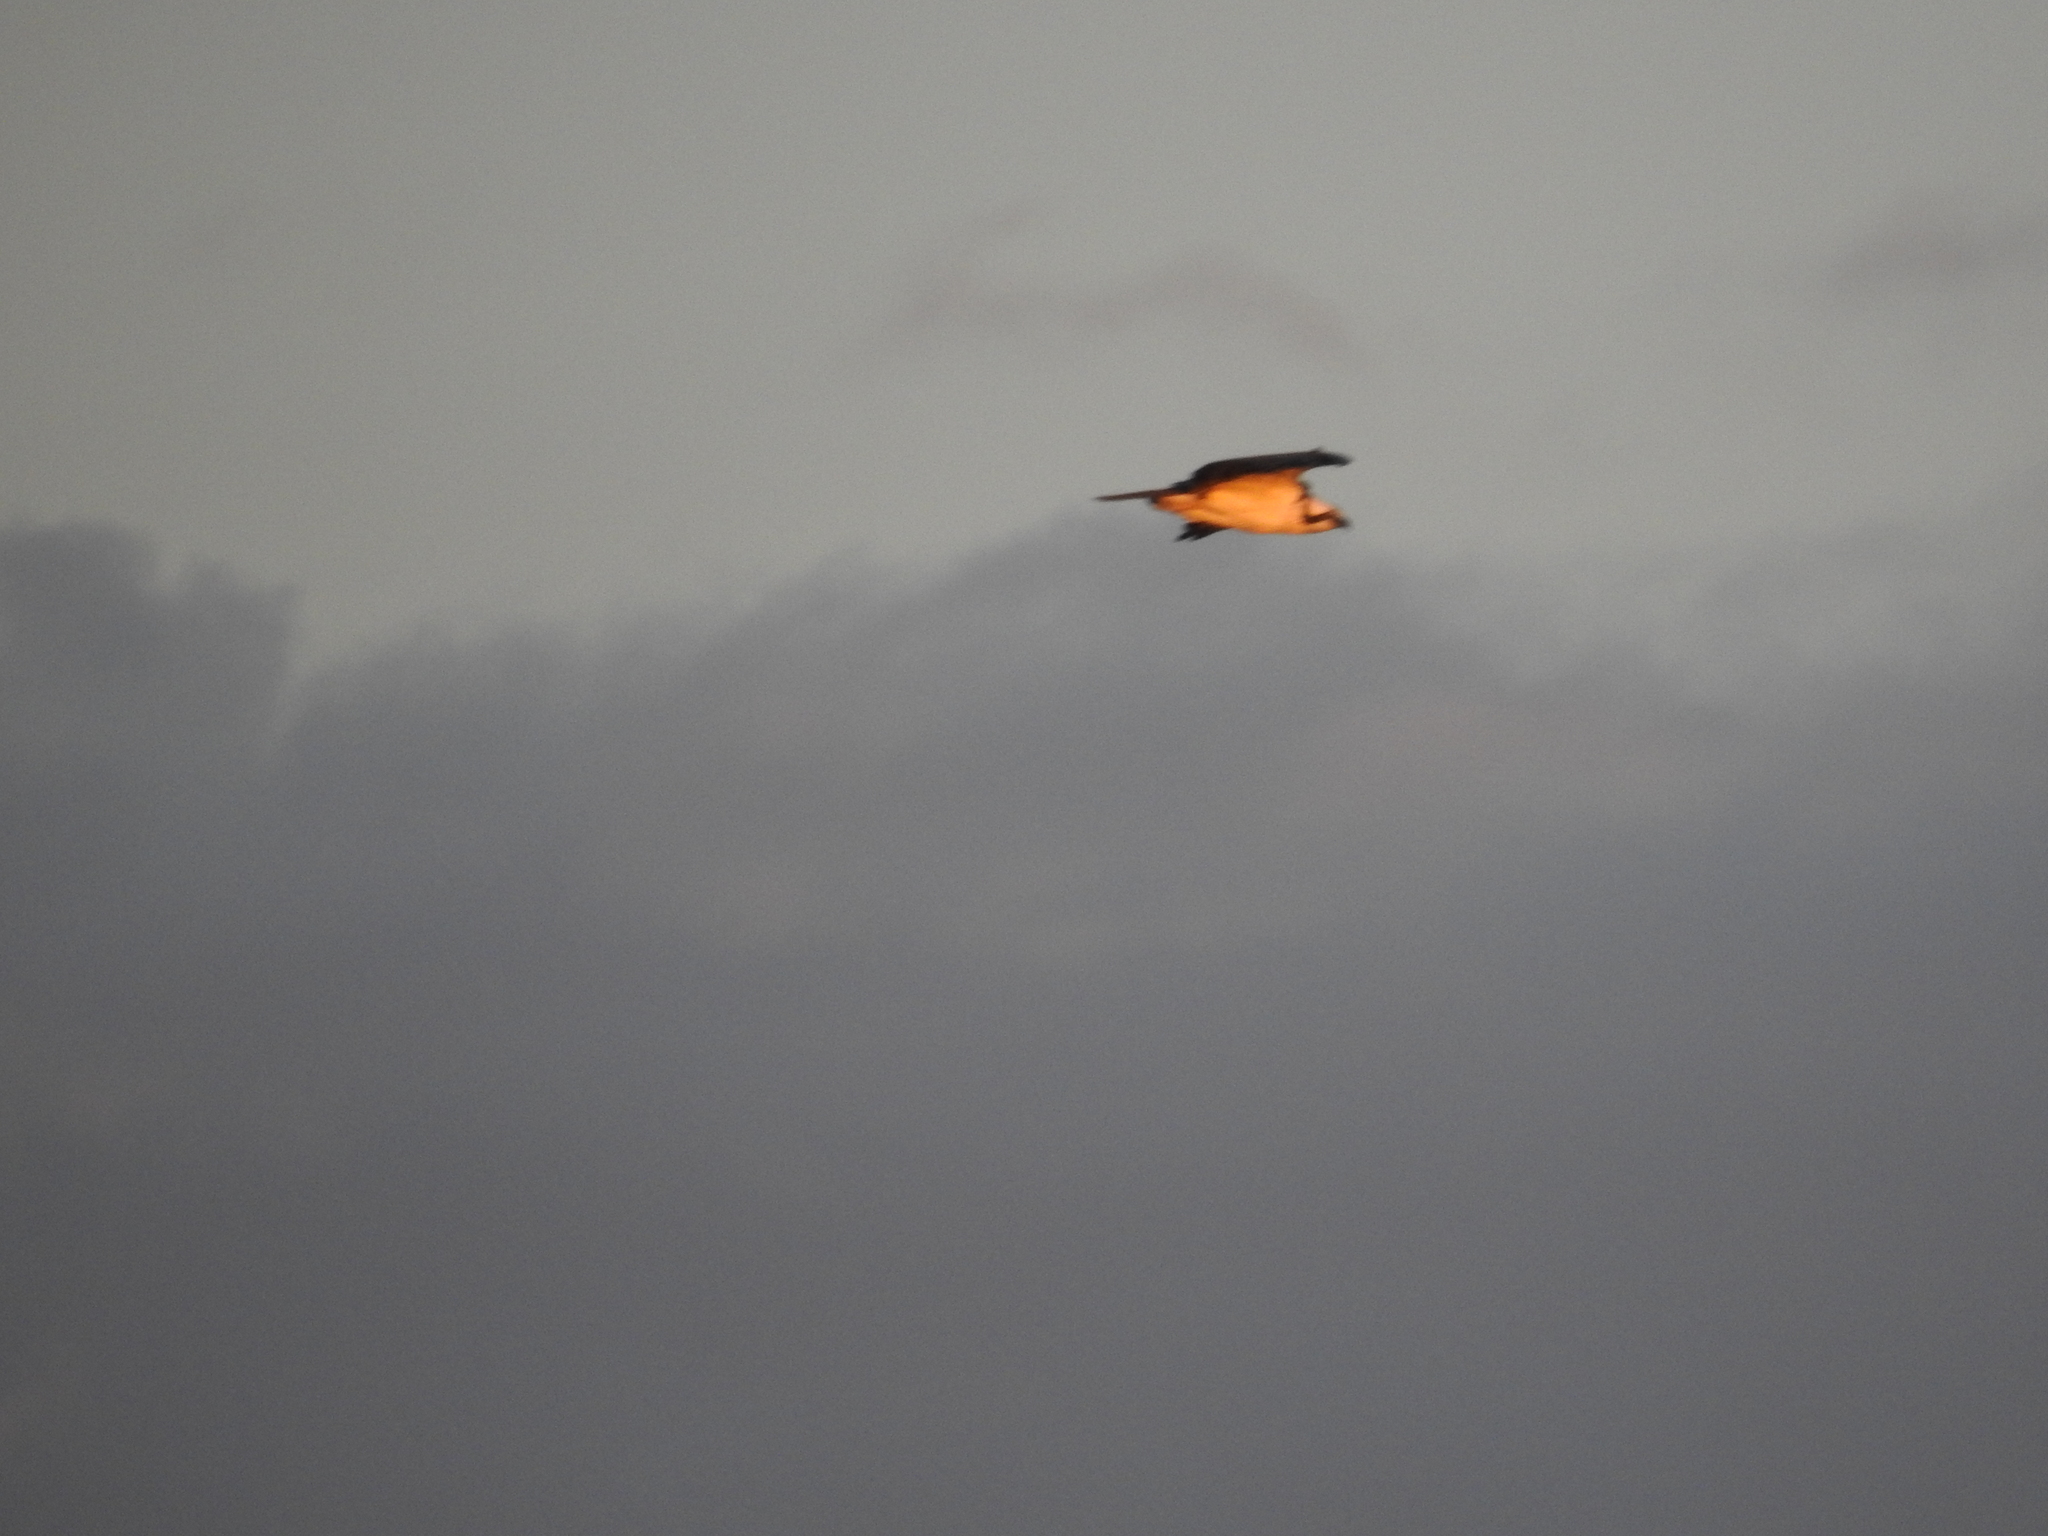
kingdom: Animalia
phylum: Chordata
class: Aves
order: Accipitriformes
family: Pandionidae
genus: Pandion
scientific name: Pandion haliaetus
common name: Osprey
